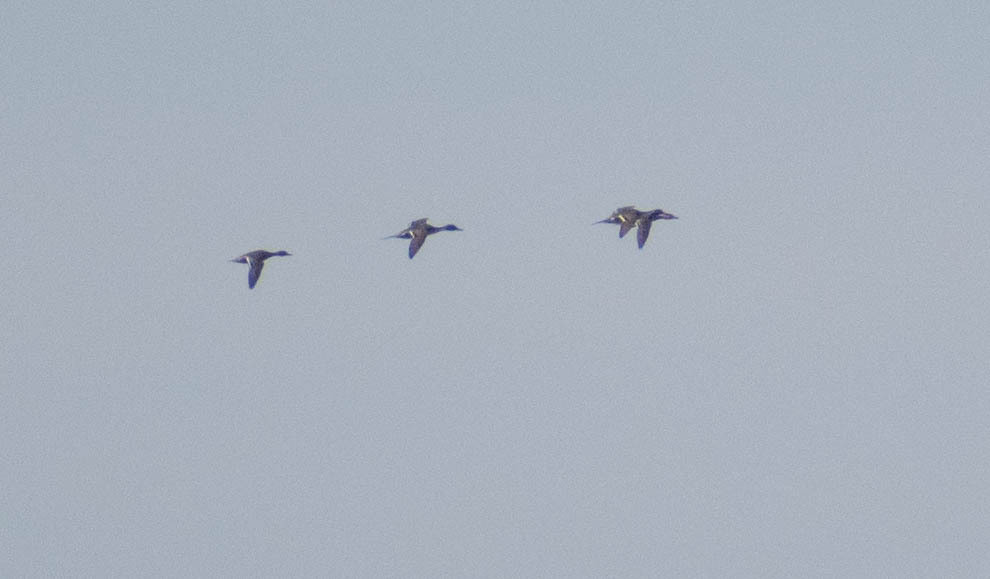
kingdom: Animalia
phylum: Chordata
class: Aves
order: Anseriformes
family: Anatidae
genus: Anas
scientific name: Anas acuta
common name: Northern pintail
